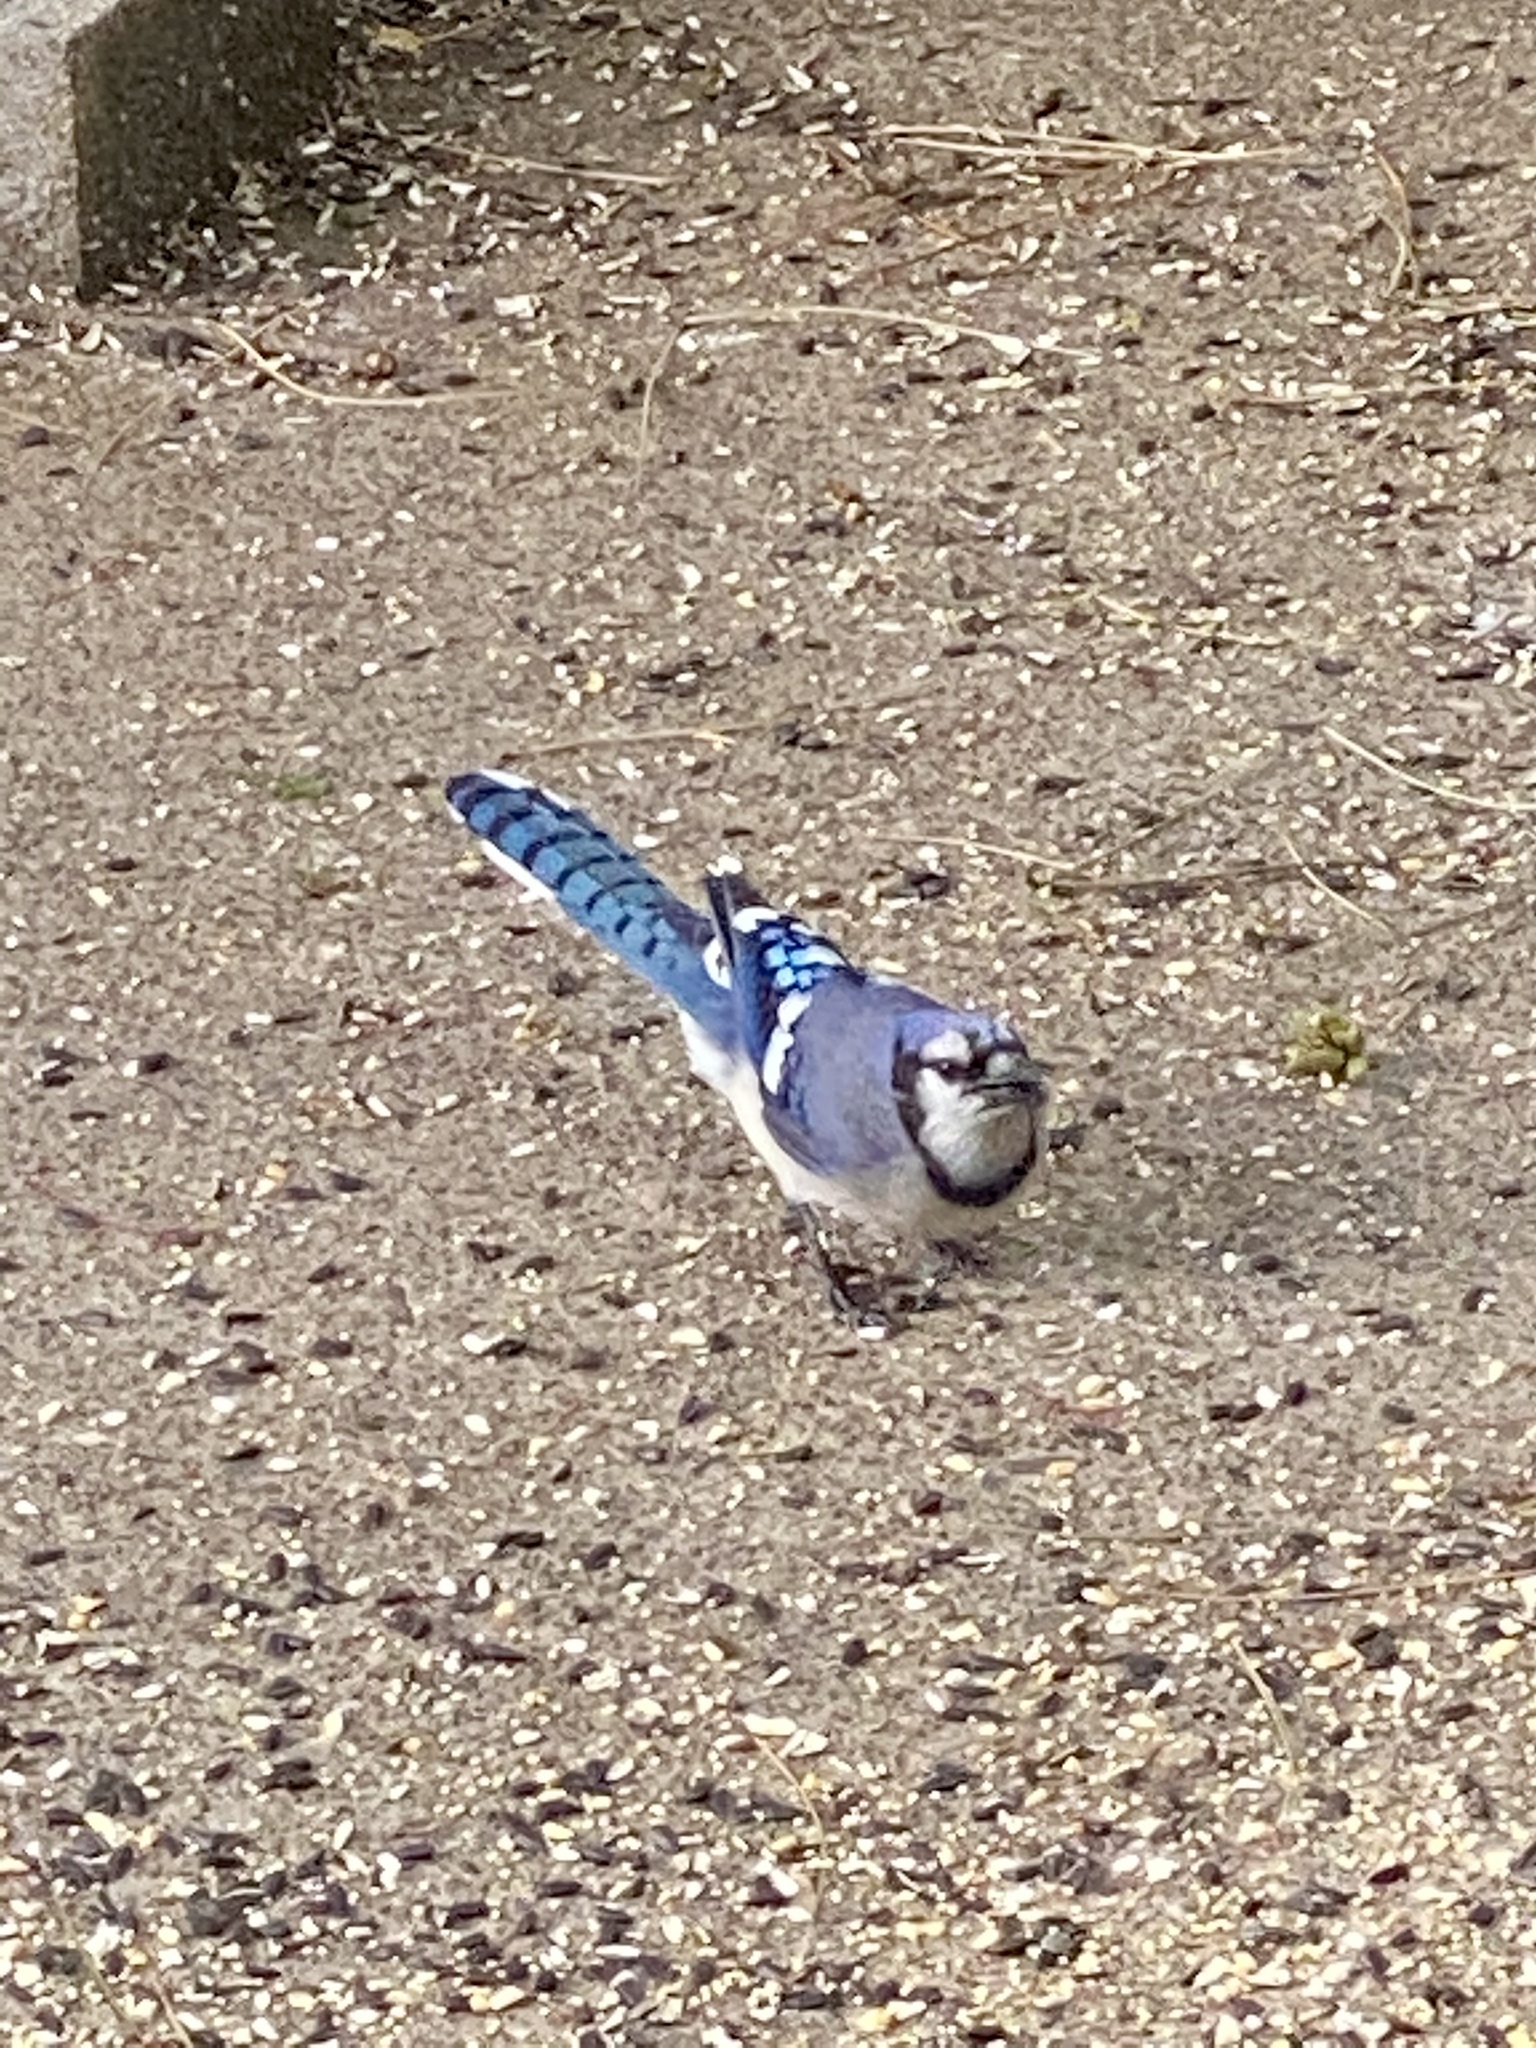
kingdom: Animalia
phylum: Chordata
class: Aves
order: Passeriformes
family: Corvidae
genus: Cyanocitta
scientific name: Cyanocitta cristata
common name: Blue jay
